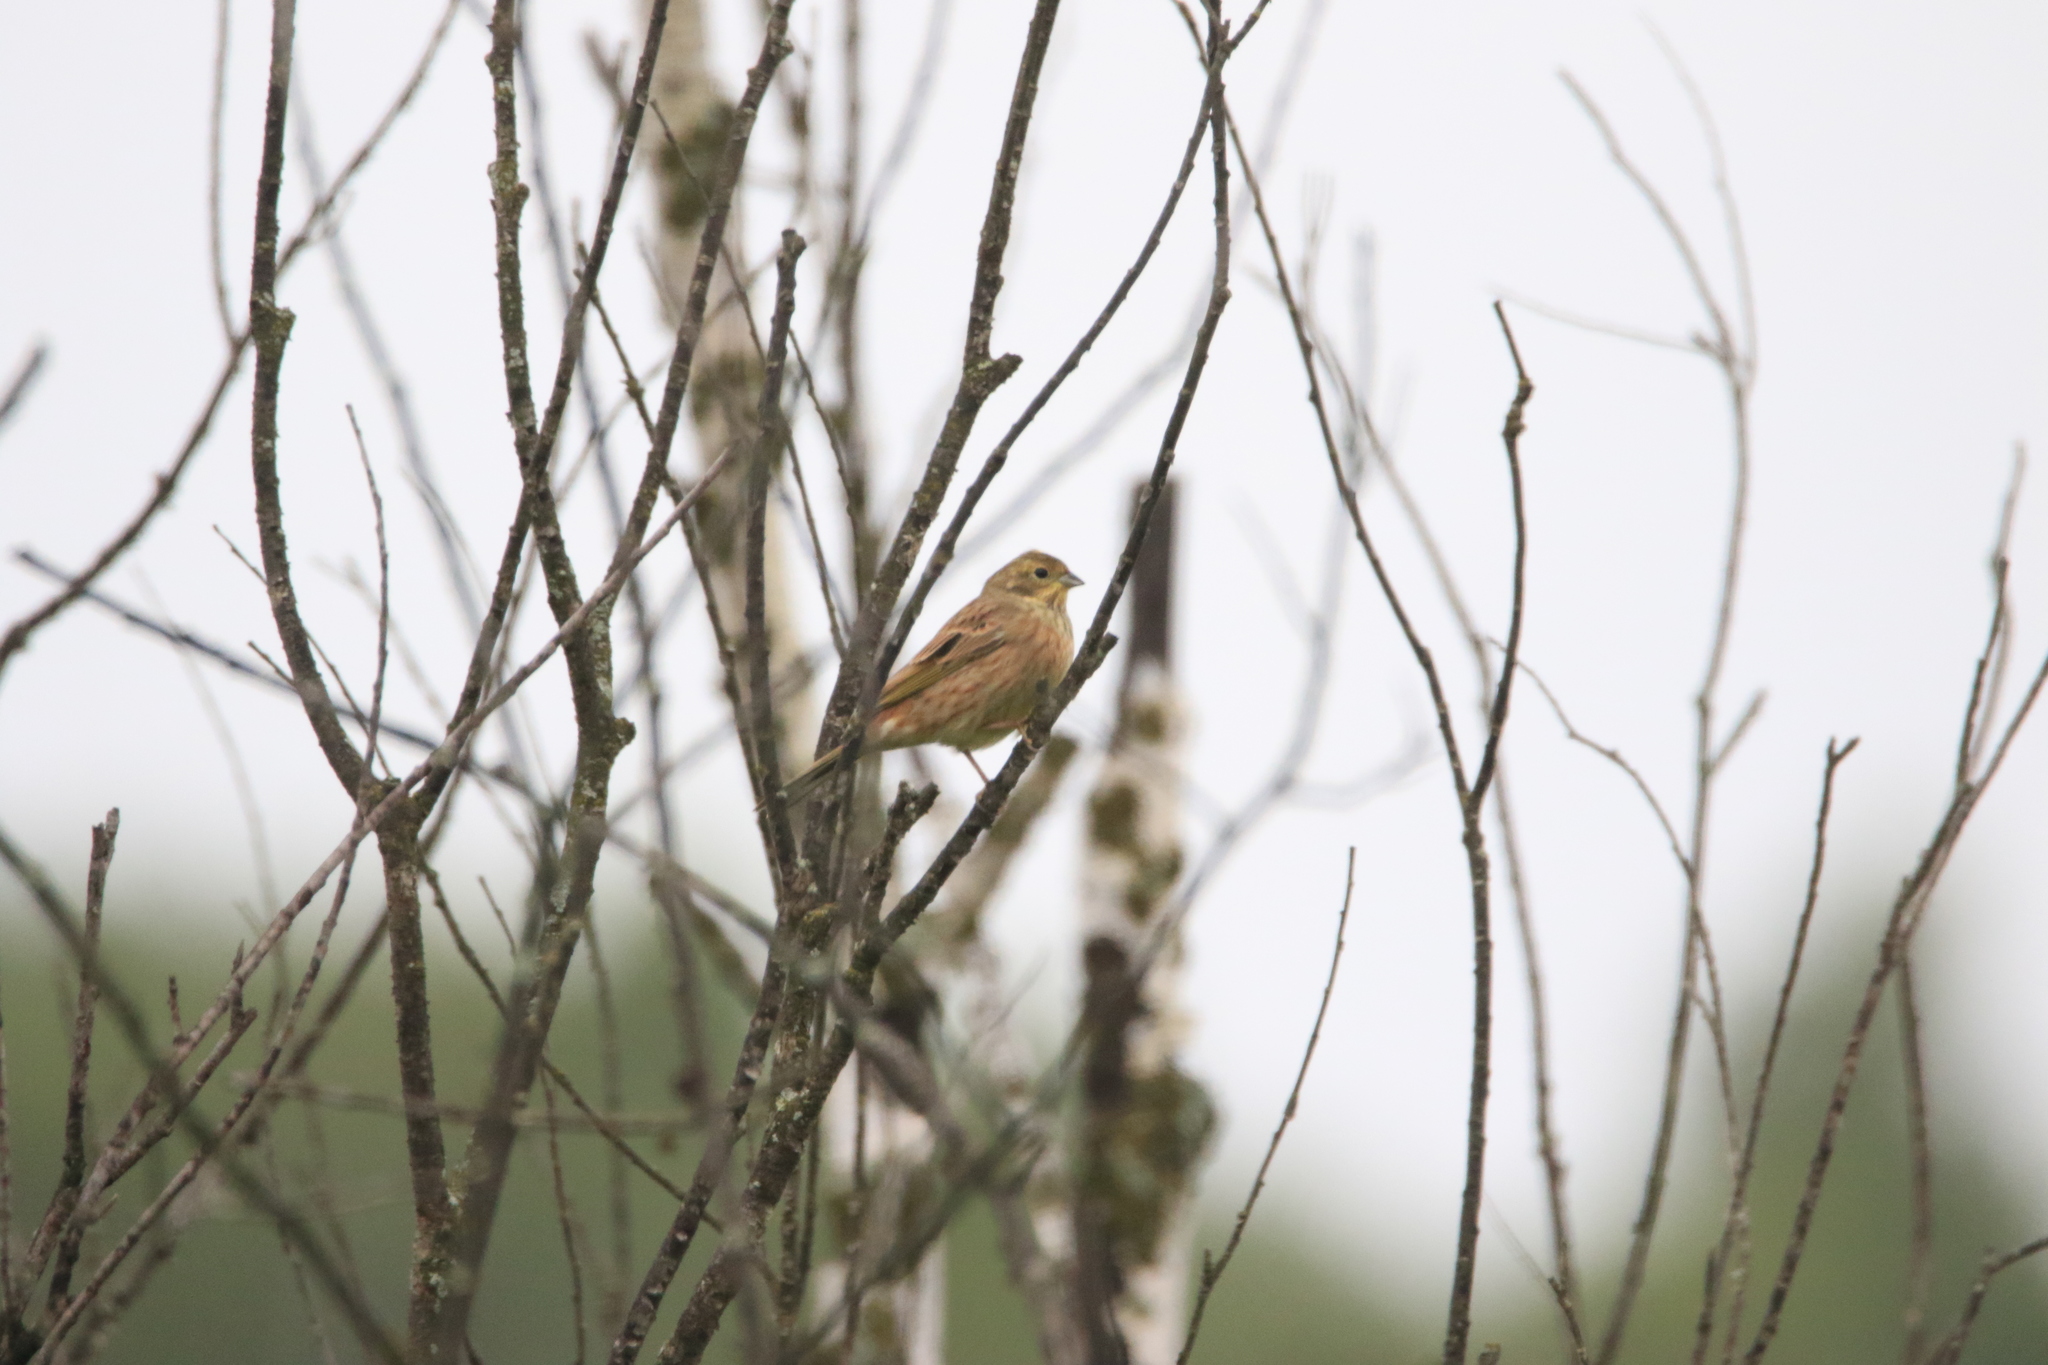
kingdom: Animalia
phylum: Chordata
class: Aves
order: Passeriformes
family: Emberizidae
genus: Emberiza
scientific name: Emberiza citrinella
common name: Yellowhammer
